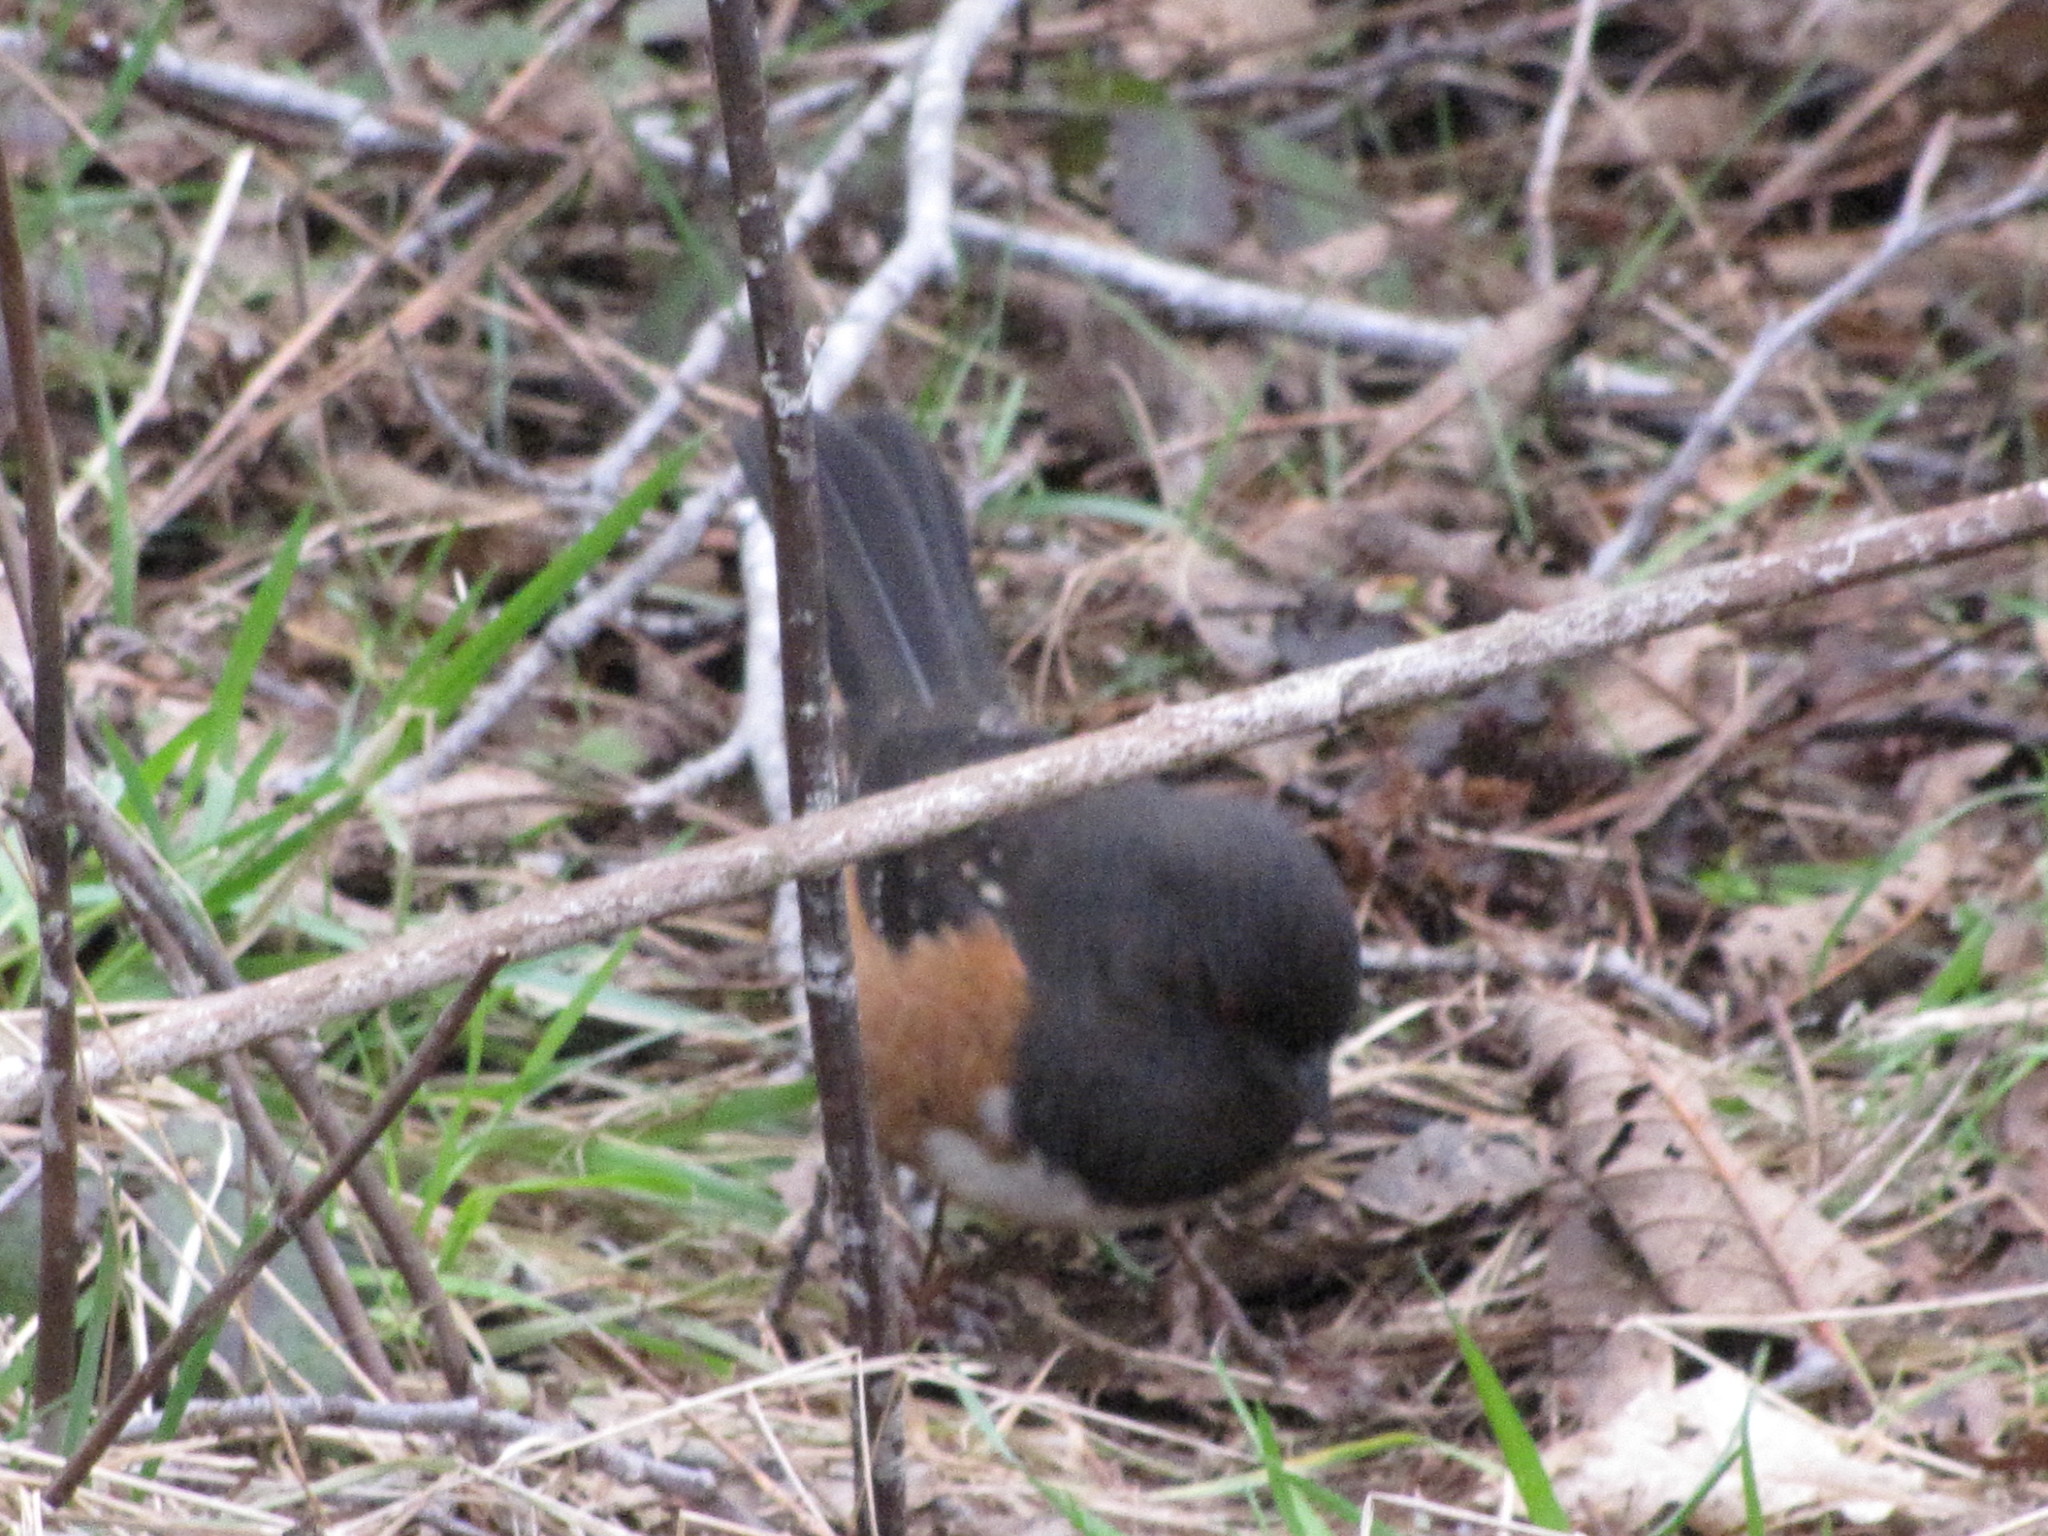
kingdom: Animalia
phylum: Chordata
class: Aves
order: Passeriformes
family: Passerellidae
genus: Pipilo
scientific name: Pipilo maculatus
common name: Spotted towhee
